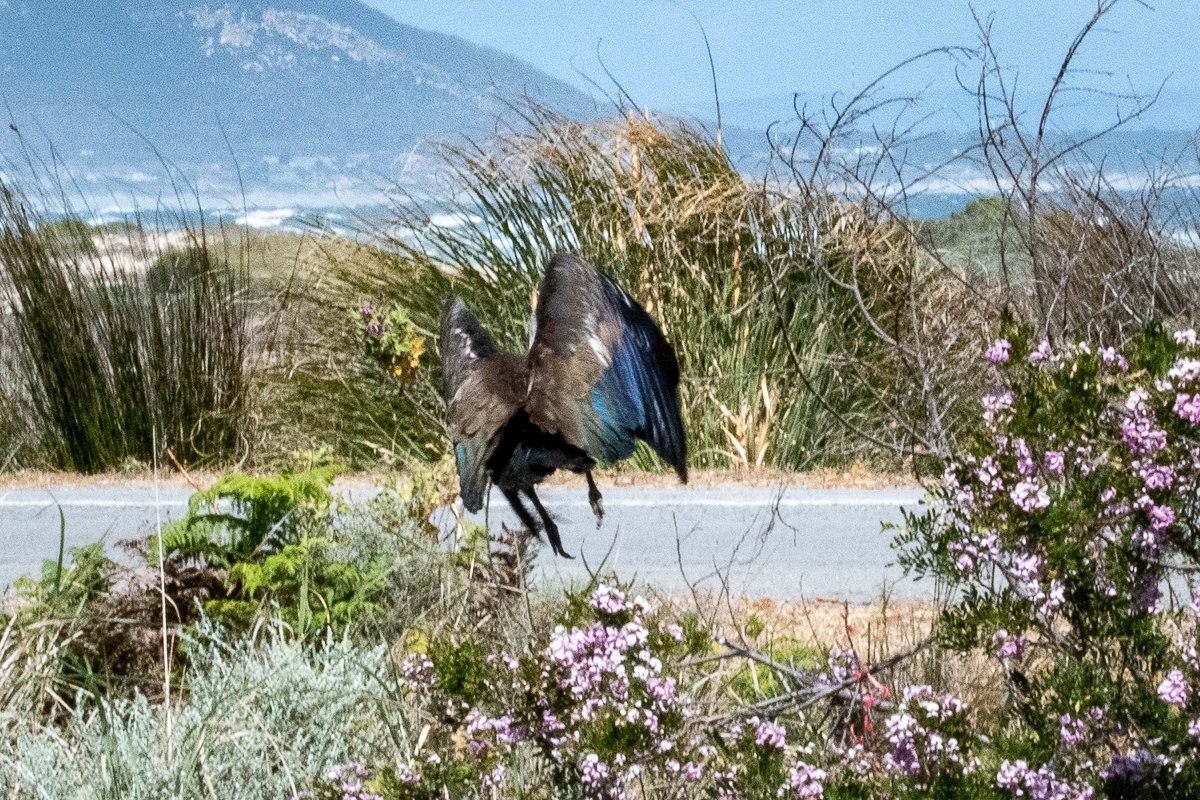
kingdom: Animalia
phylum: Chordata
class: Aves
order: Pelecaniformes
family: Threskiornithidae
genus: Bostrychia
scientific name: Bostrychia hagedash
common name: Hadada ibis
